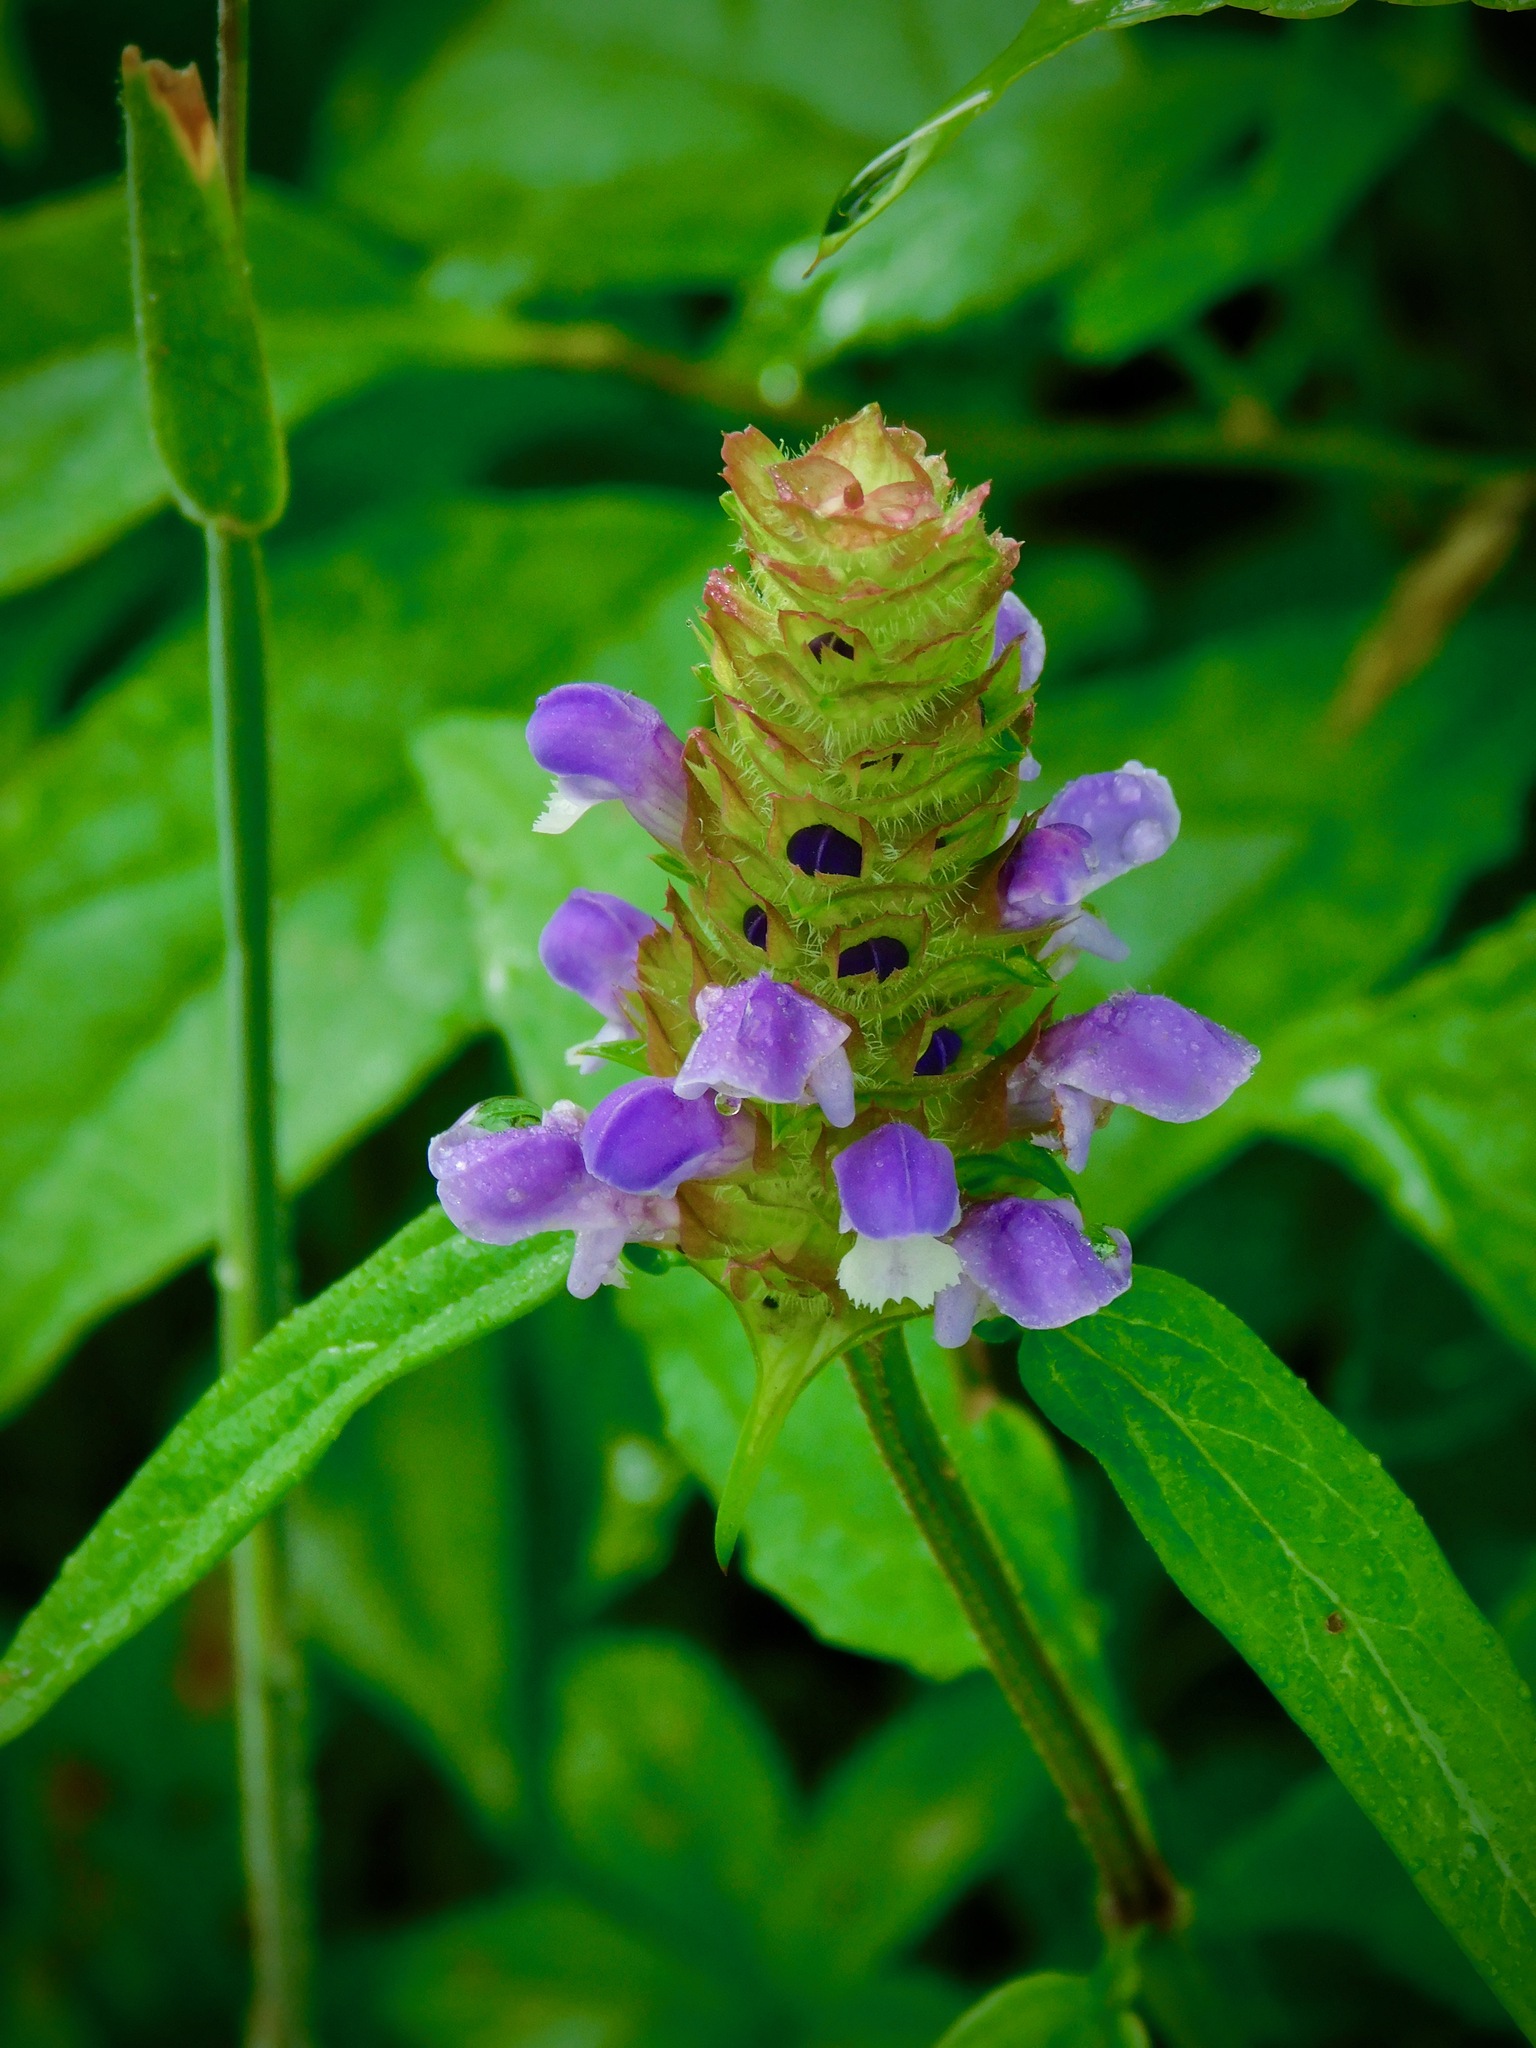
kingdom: Plantae
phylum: Tracheophyta
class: Magnoliopsida
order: Lamiales
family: Lamiaceae
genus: Prunella
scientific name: Prunella vulgaris
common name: Heal-all
